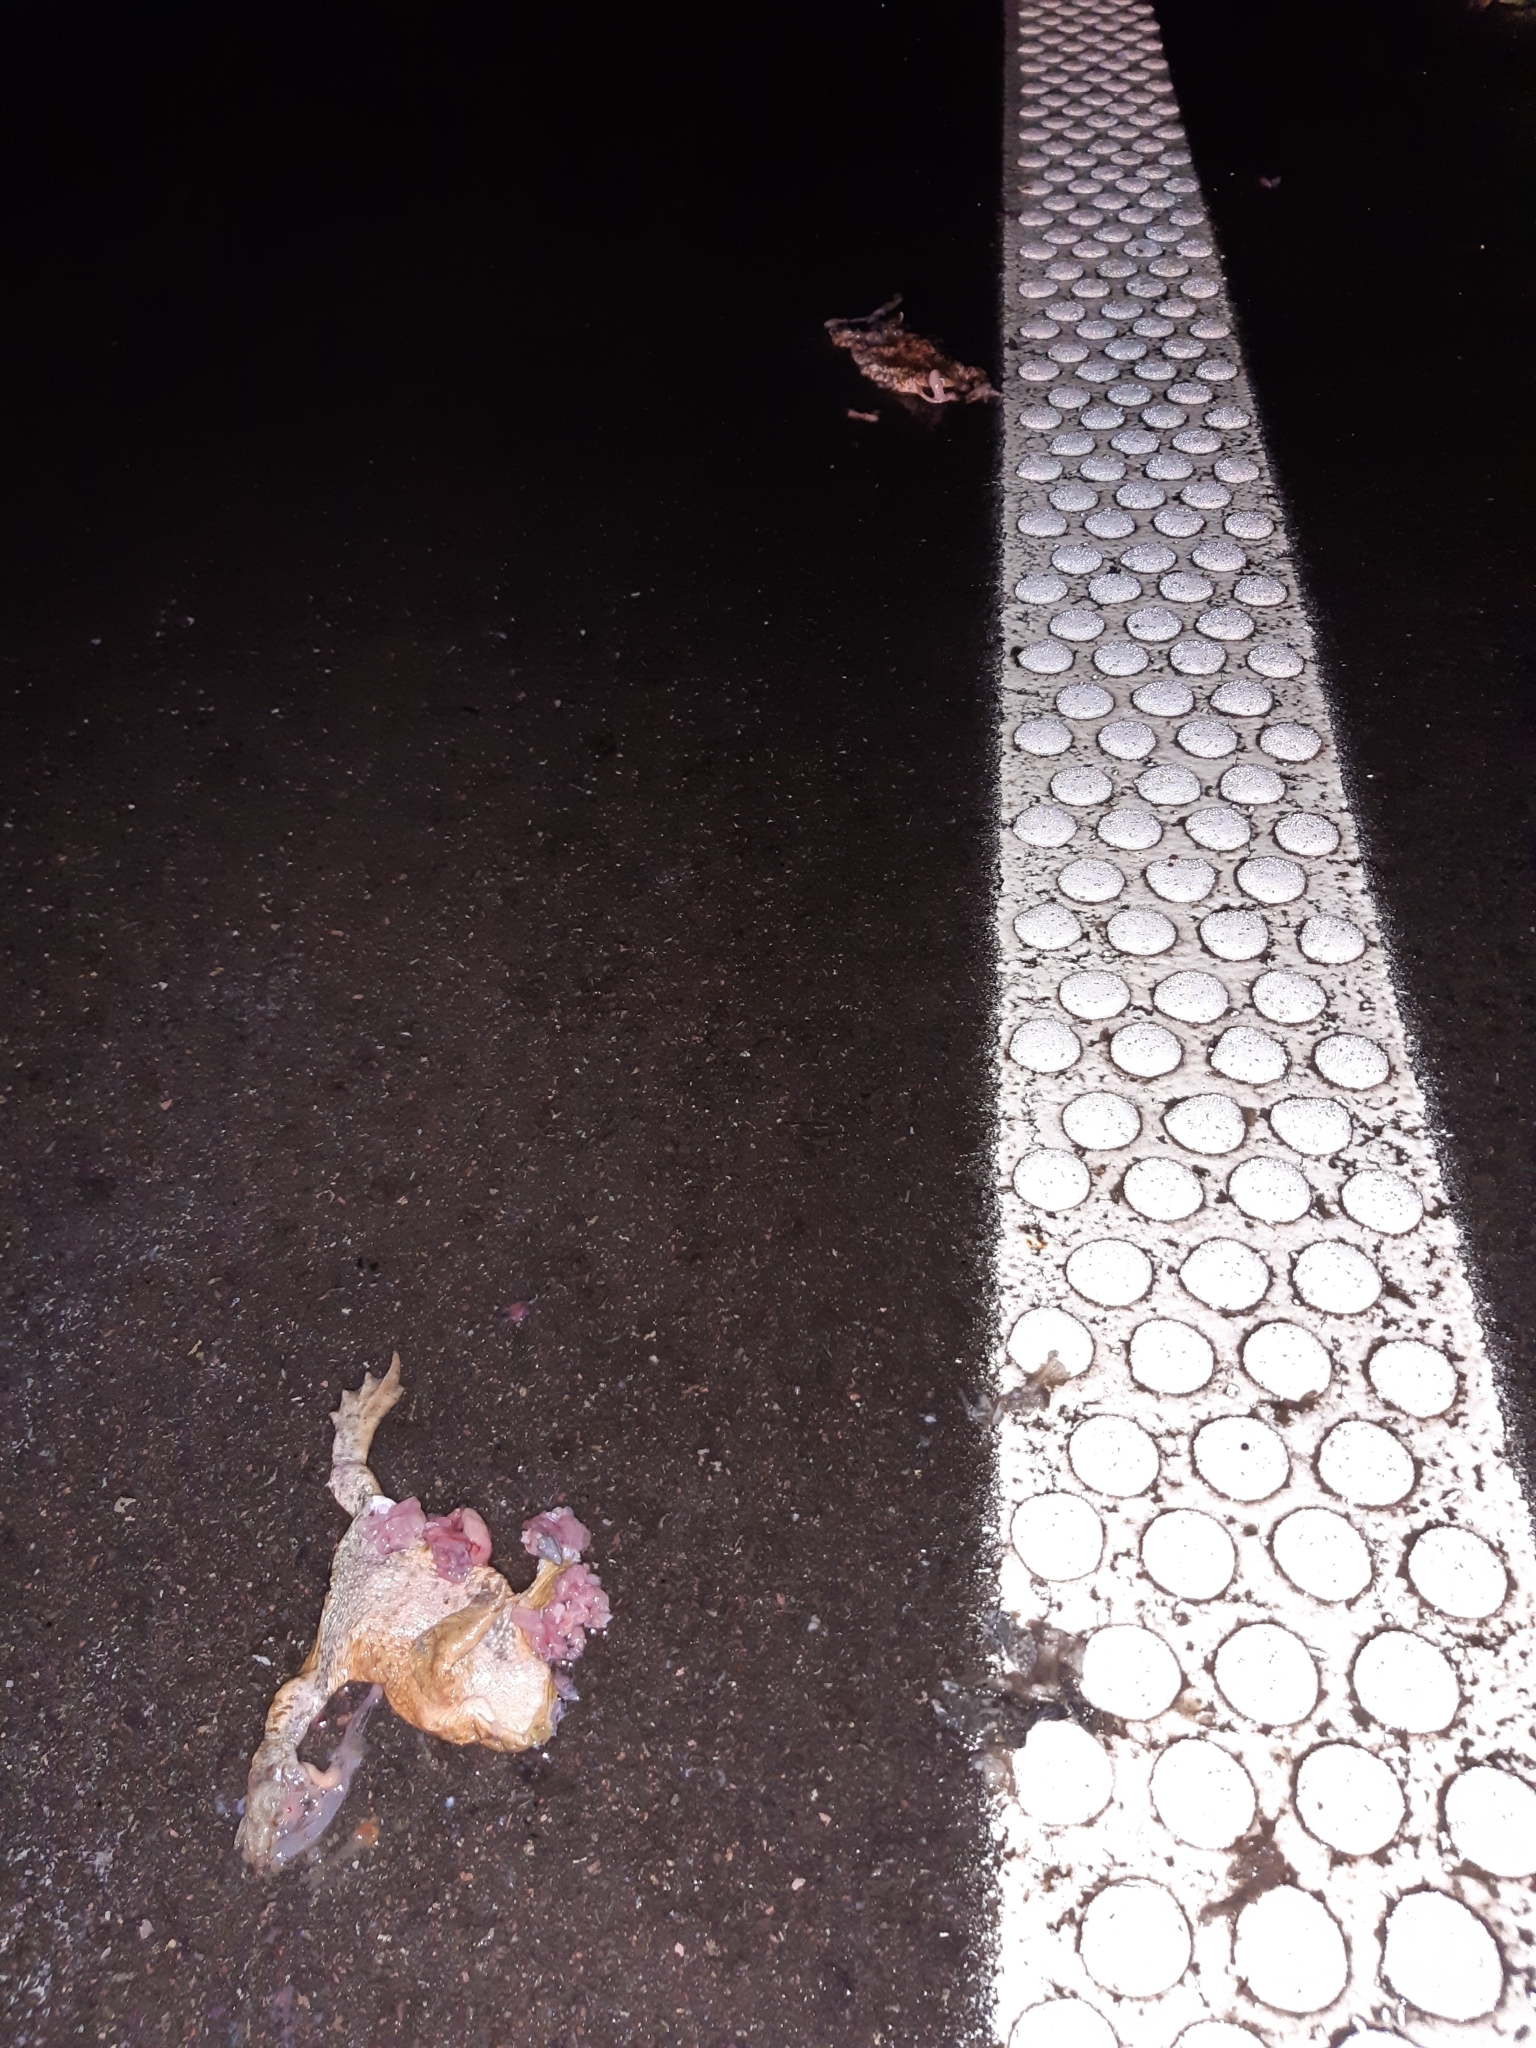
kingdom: Animalia
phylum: Chordata
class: Amphibia
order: Anura
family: Bufonidae
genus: Bufo
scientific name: Bufo bufo
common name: Common toad
